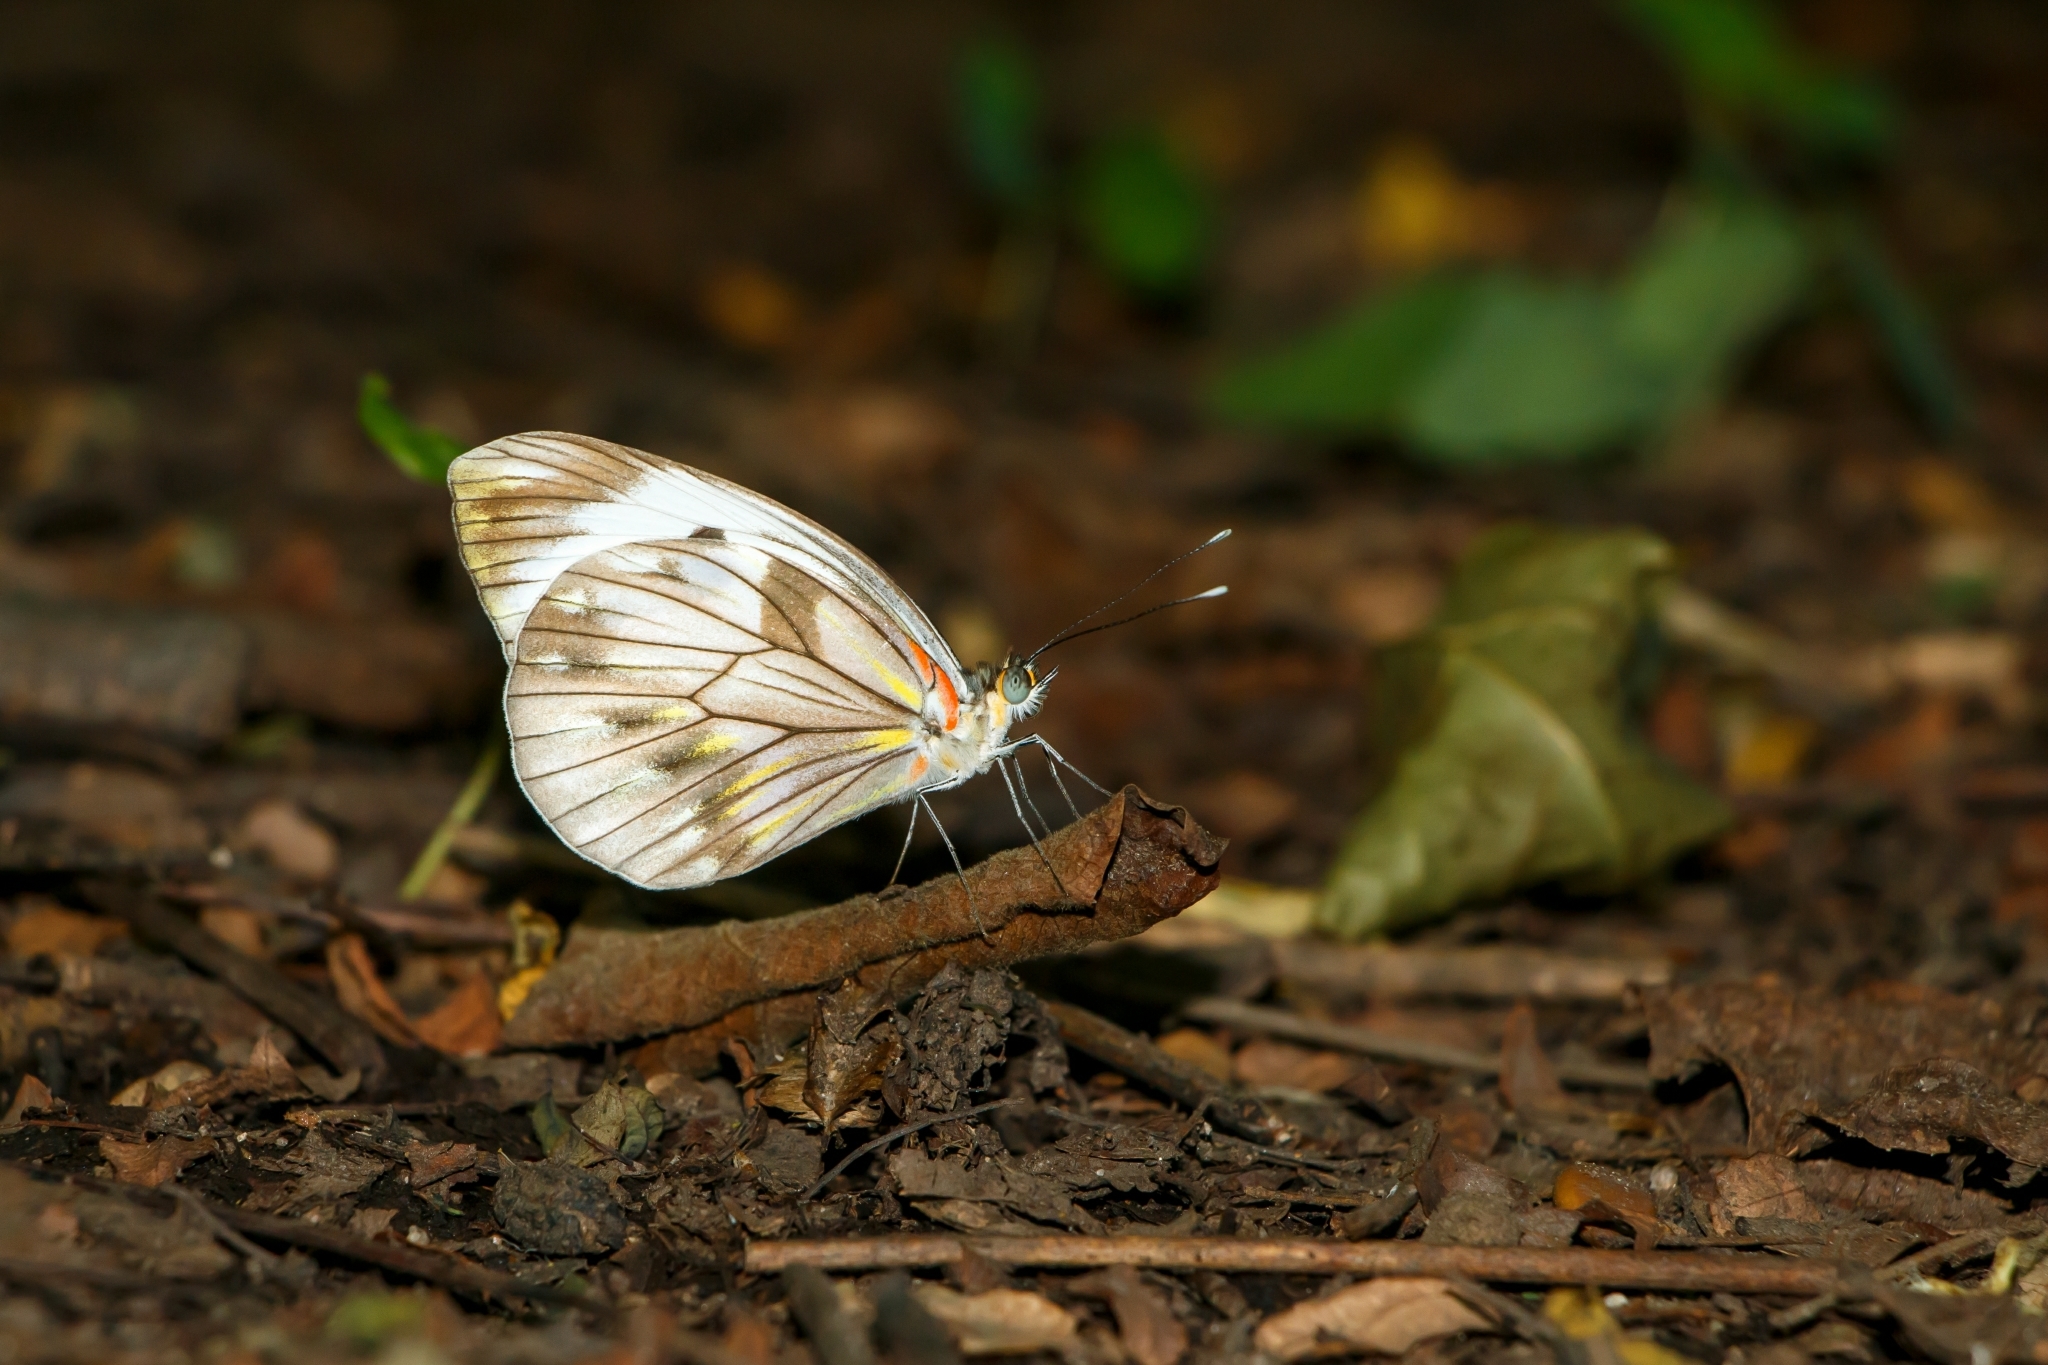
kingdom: Animalia
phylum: Arthropoda
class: Insecta
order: Lepidoptera
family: Pieridae
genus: Pieriballia
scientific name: Pieriballia viardi
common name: Painted white
